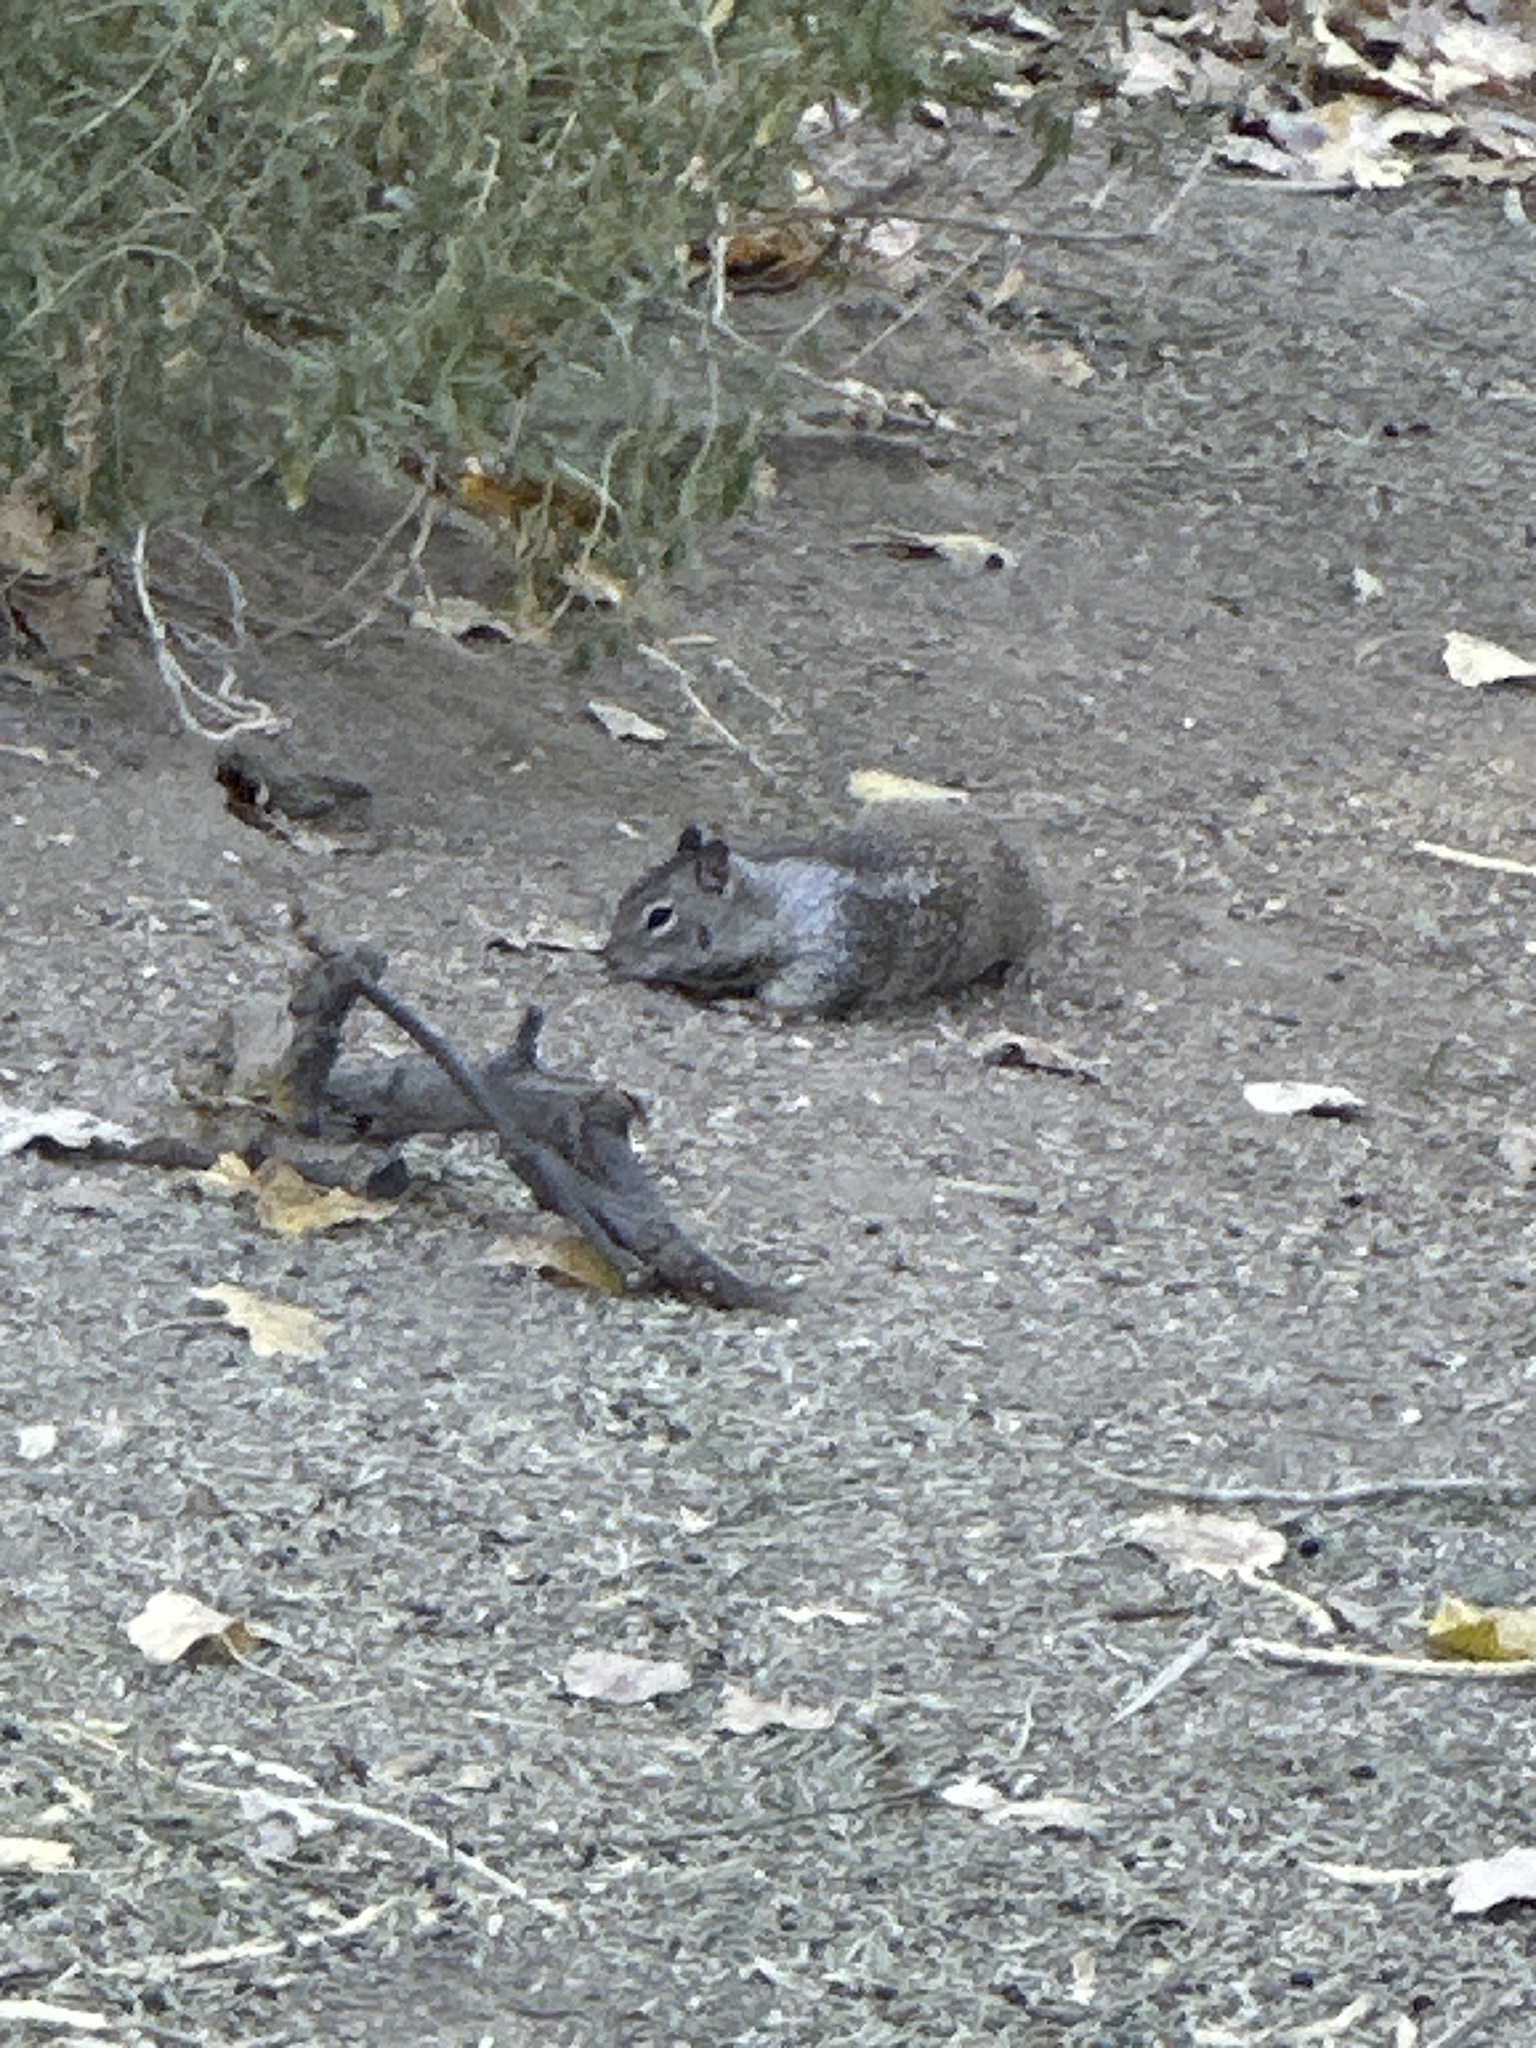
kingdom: Animalia
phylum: Chordata
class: Mammalia
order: Rodentia
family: Sciuridae
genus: Otospermophilus
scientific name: Otospermophilus beecheyi
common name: California ground squirrel
